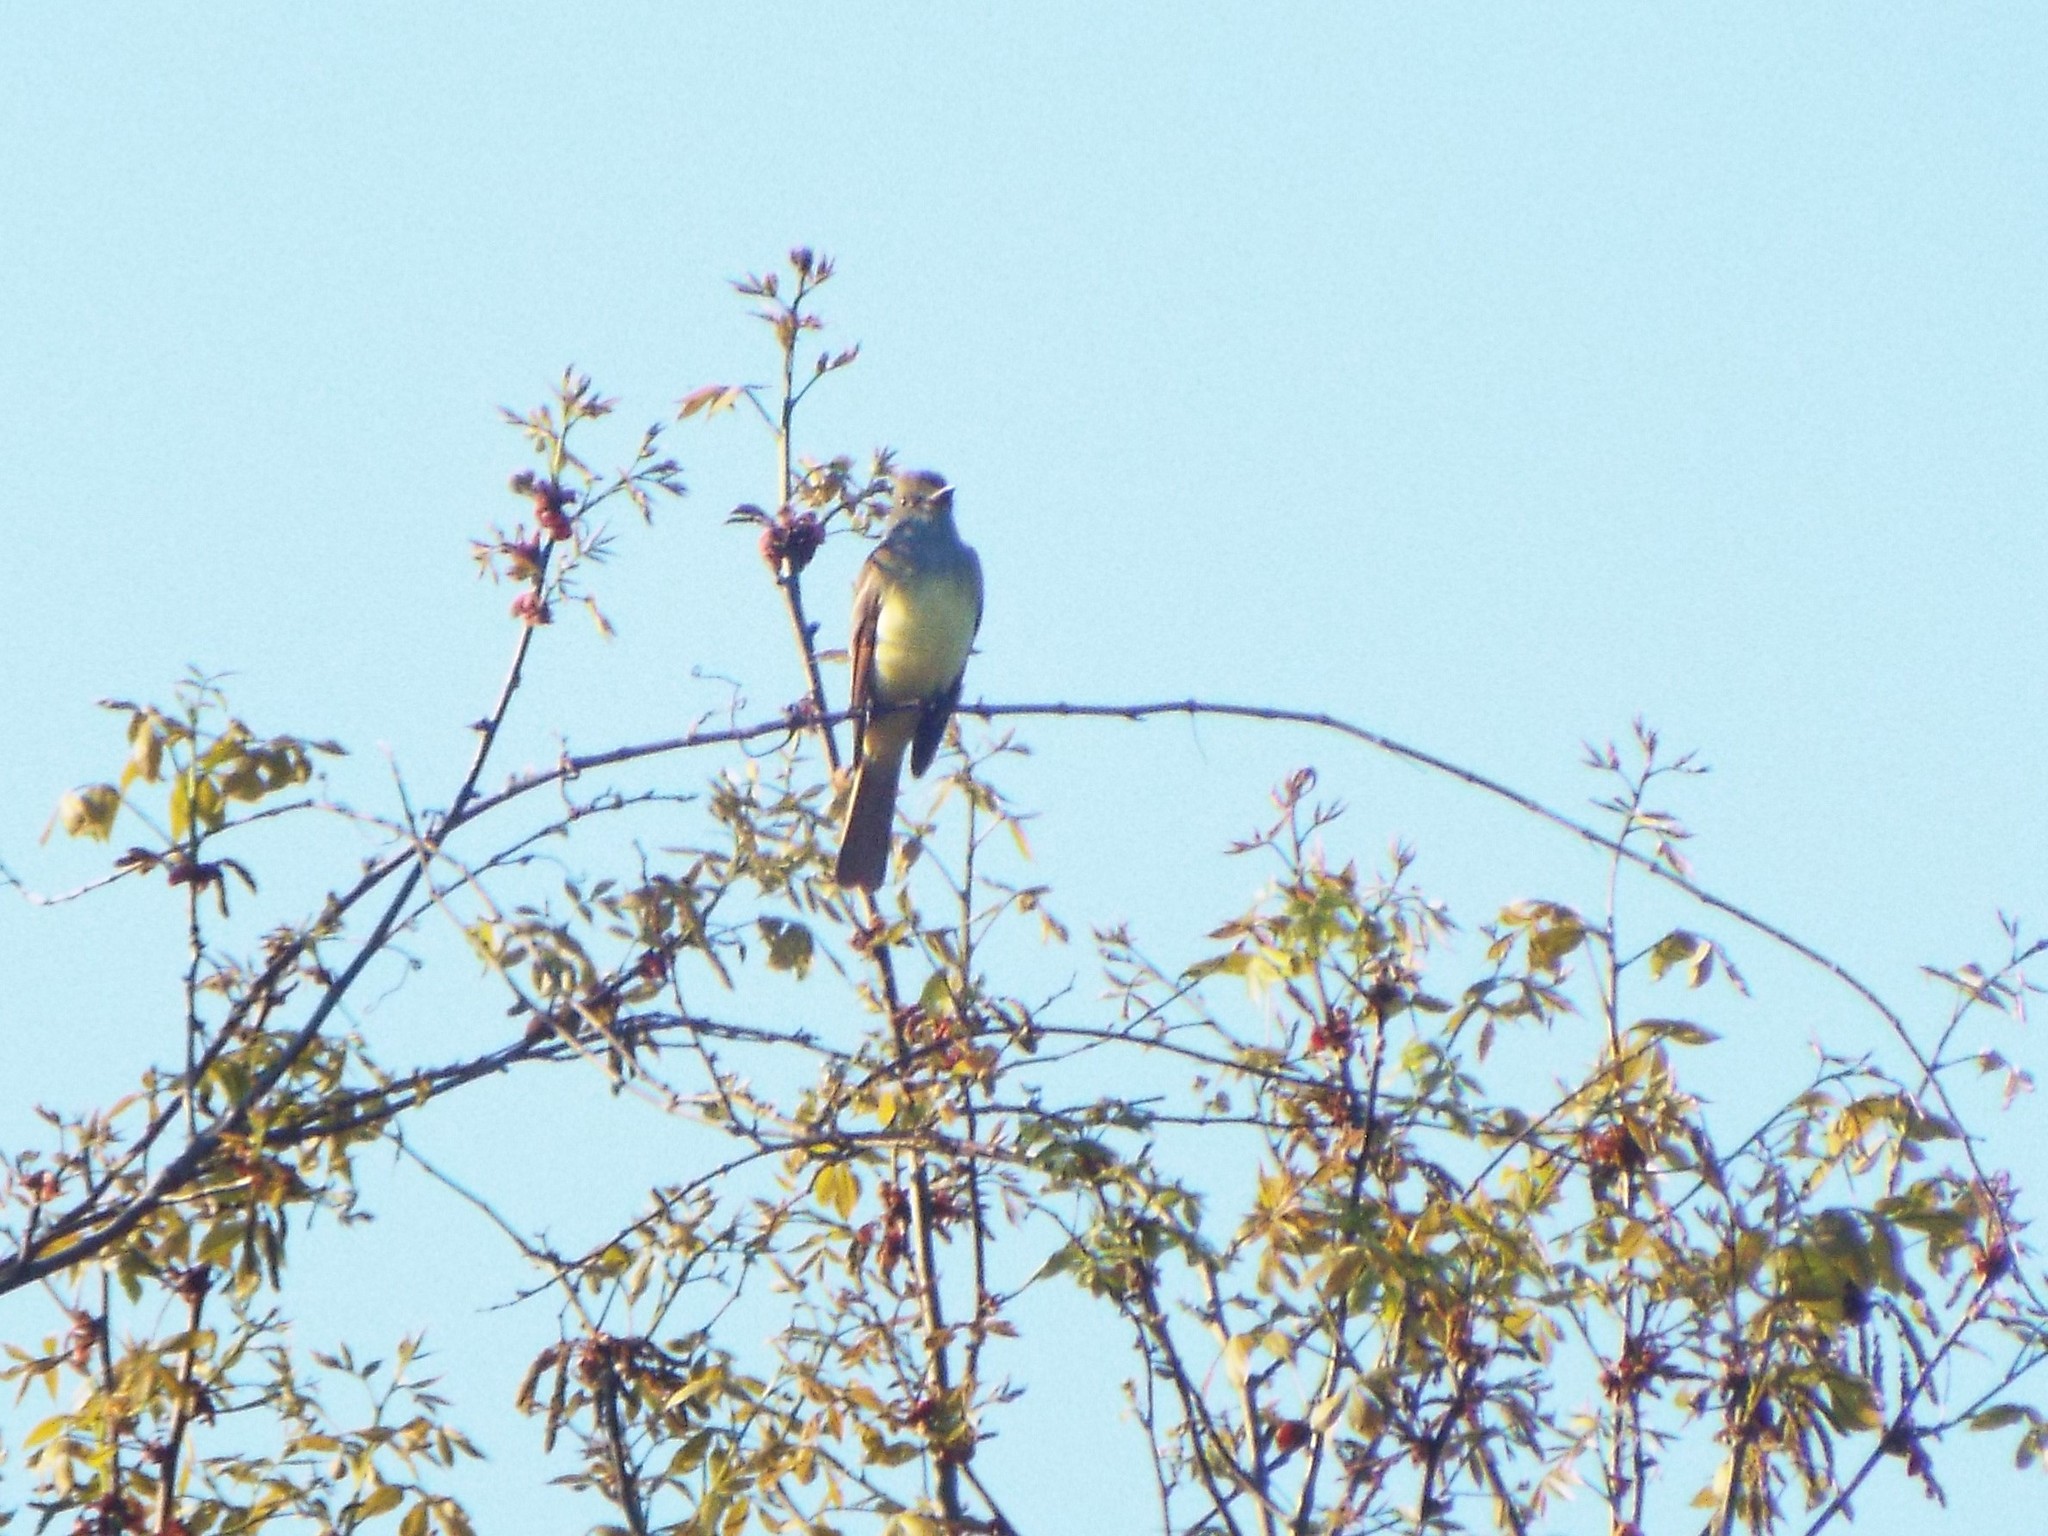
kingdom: Animalia
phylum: Chordata
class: Aves
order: Passeriformes
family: Tyrannidae
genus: Myiarchus
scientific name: Myiarchus crinitus
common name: Great crested flycatcher
